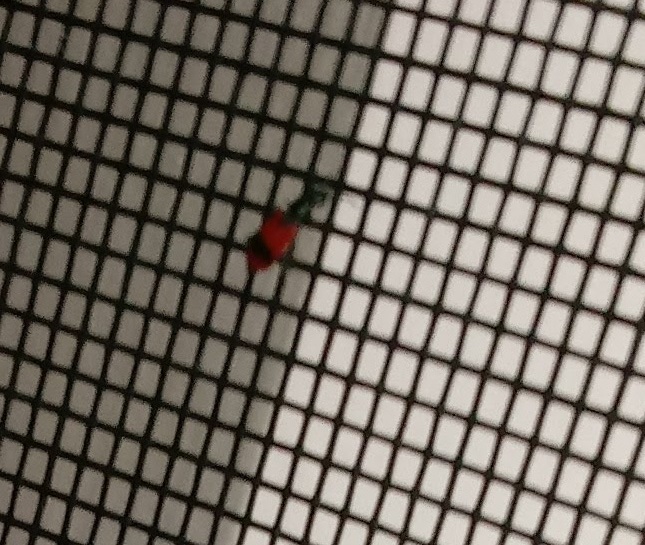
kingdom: Animalia
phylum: Arthropoda
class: Insecta
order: Coleoptera
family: Melyridae
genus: Anthocomus
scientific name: Anthocomus equestris
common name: Black-banded soft-winged flower beetle
